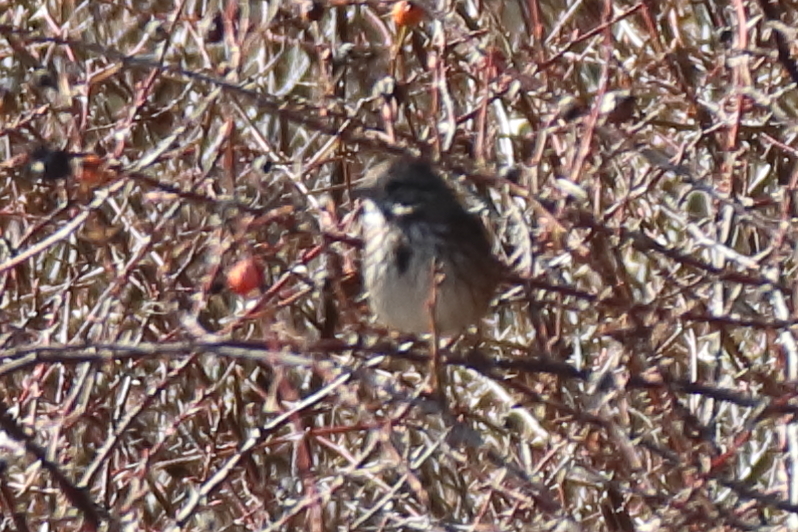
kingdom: Animalia
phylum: Chordata
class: Aves
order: Passeriformes
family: Passerellidae
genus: Melospiza
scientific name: Melospiza melodia
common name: Song sparrow
